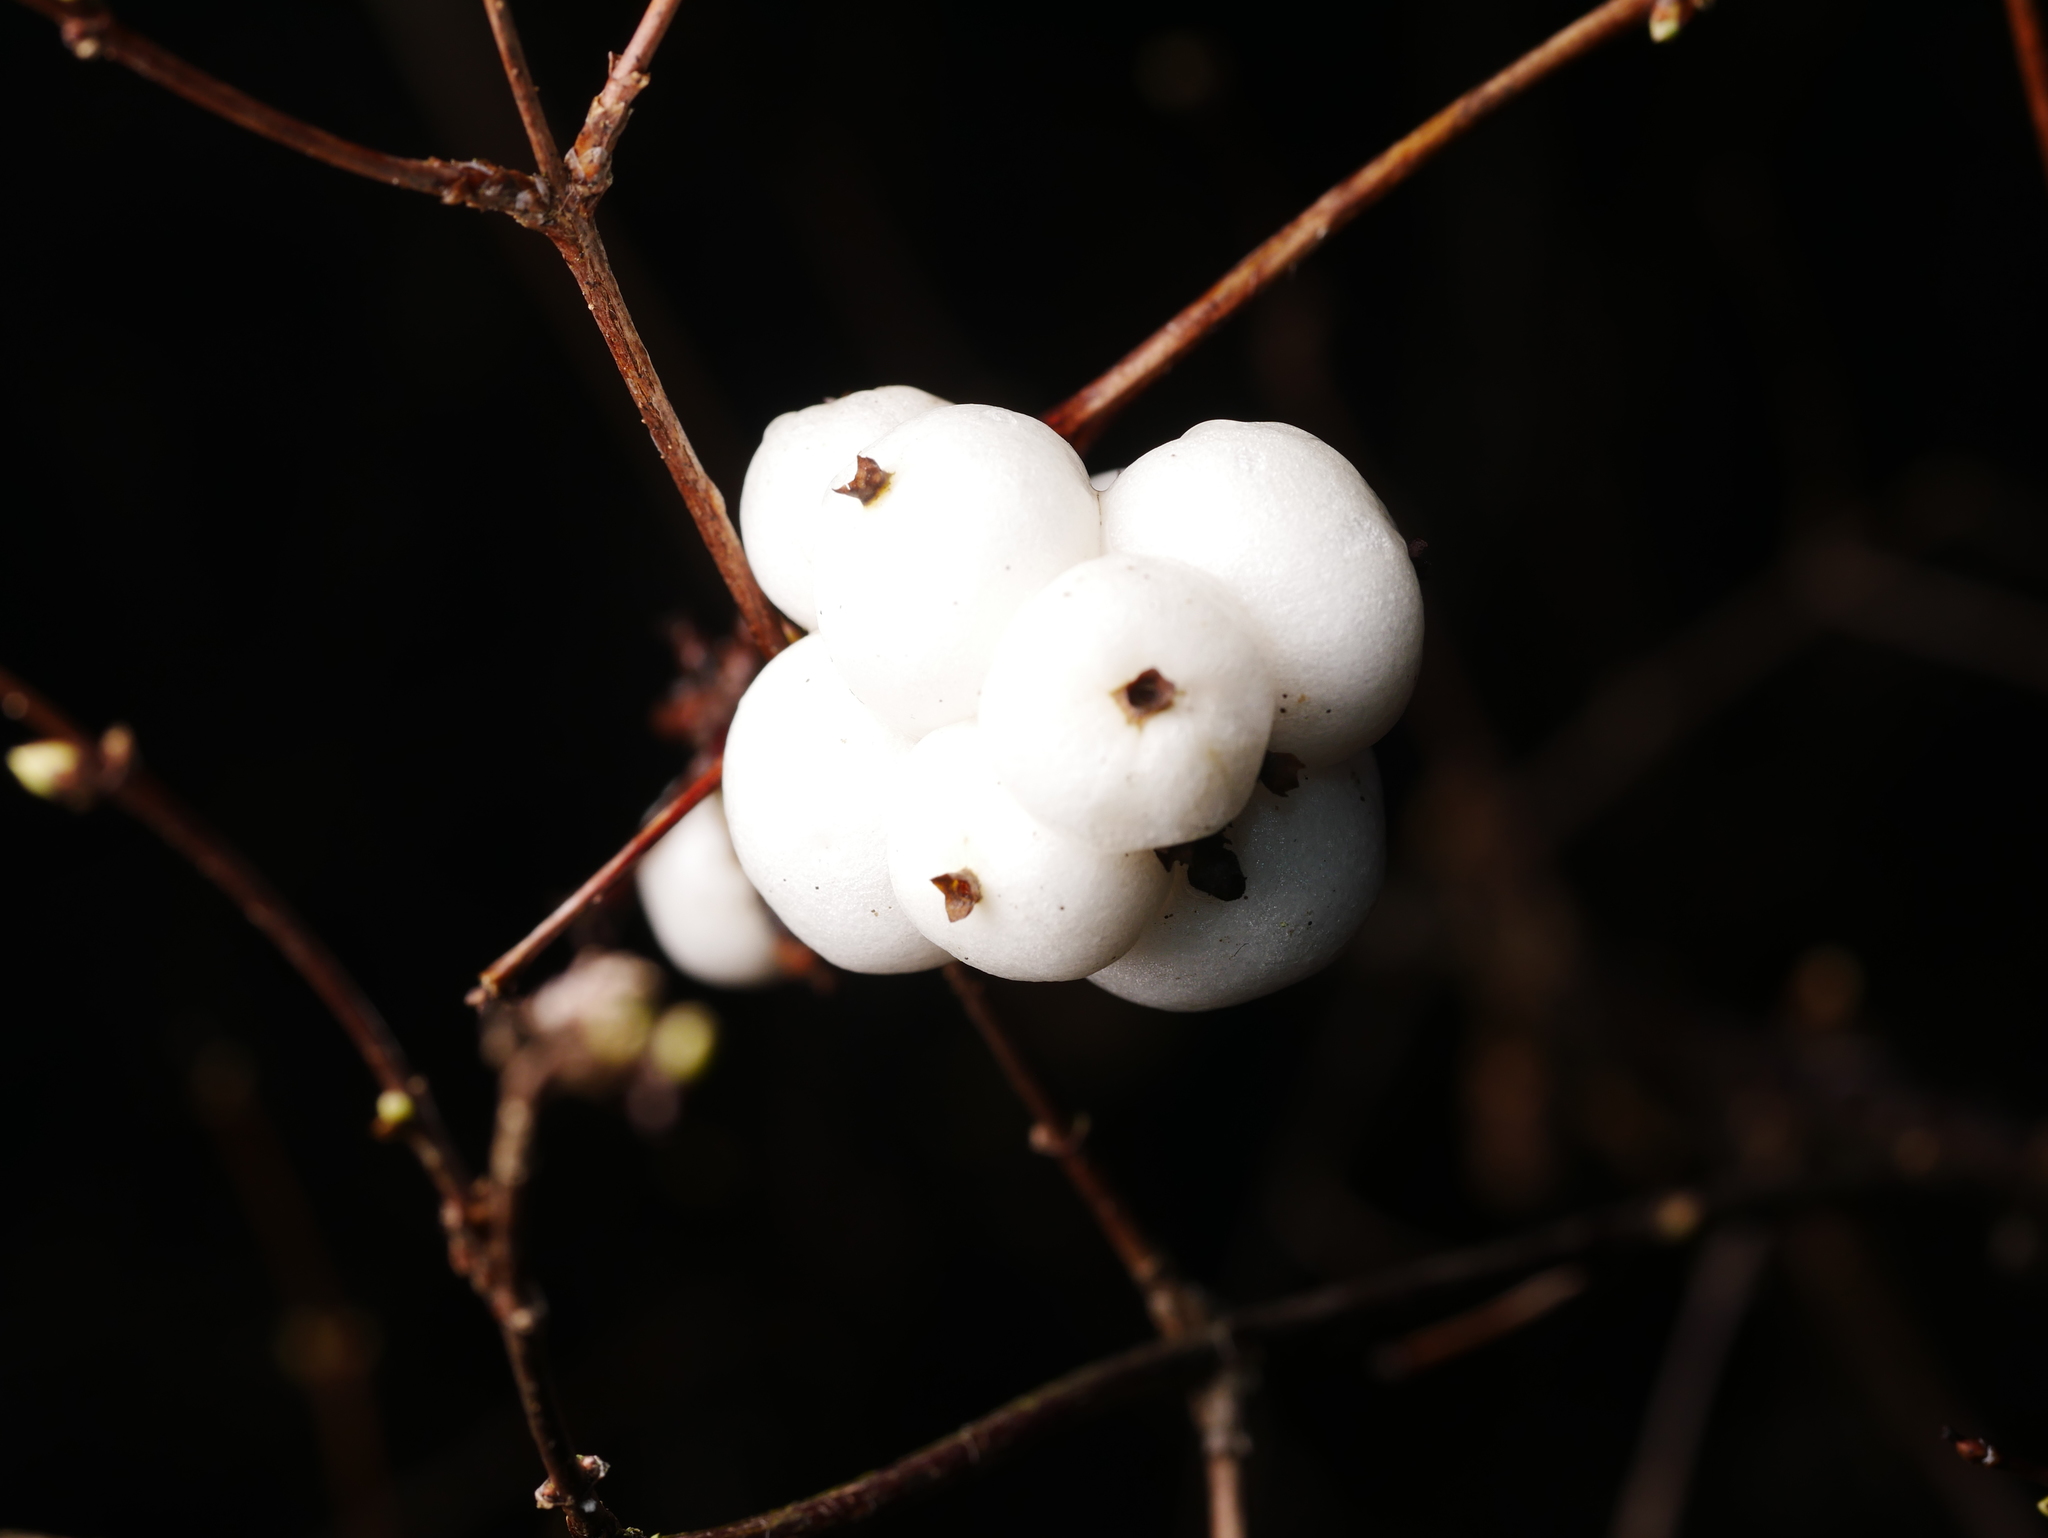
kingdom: Plantae
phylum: Tracheophyta
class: Magnoliopsida
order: Dipsacales
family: Caprifoliaceae
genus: Symphoricarpos
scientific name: Symphoricarpos albus
